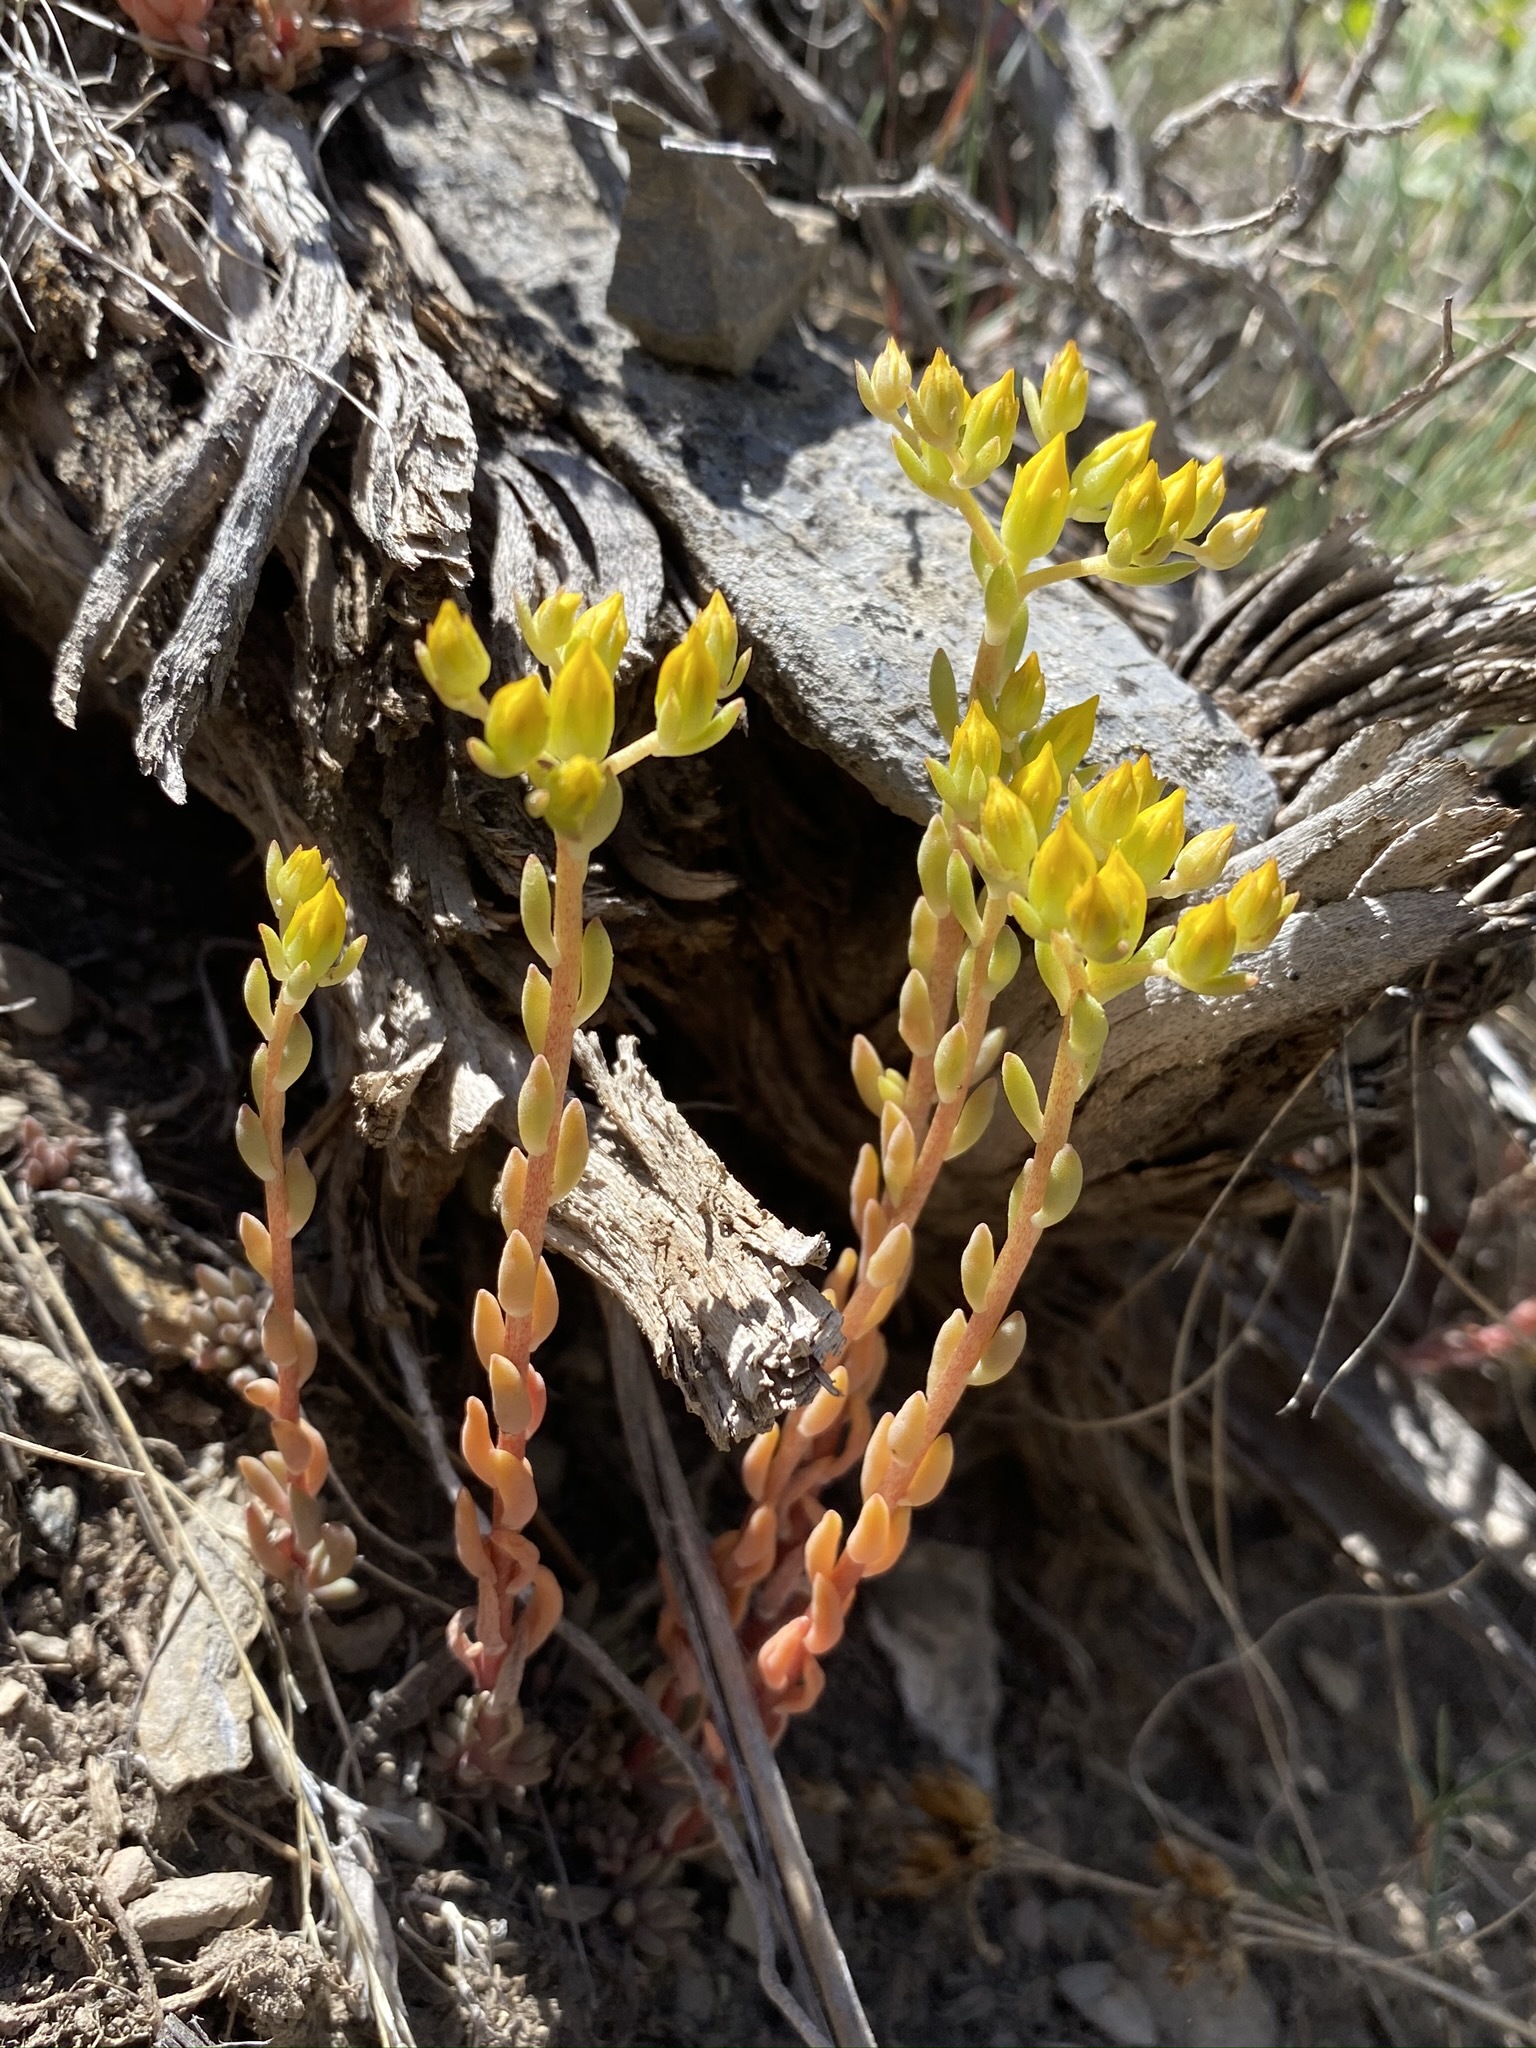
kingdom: Plantae
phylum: Tracheophyta
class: Magnoliopsida
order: Saxifragales
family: Crassulaceae
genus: Sedum
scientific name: Sedum lanceolatum
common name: Common stonecrop
